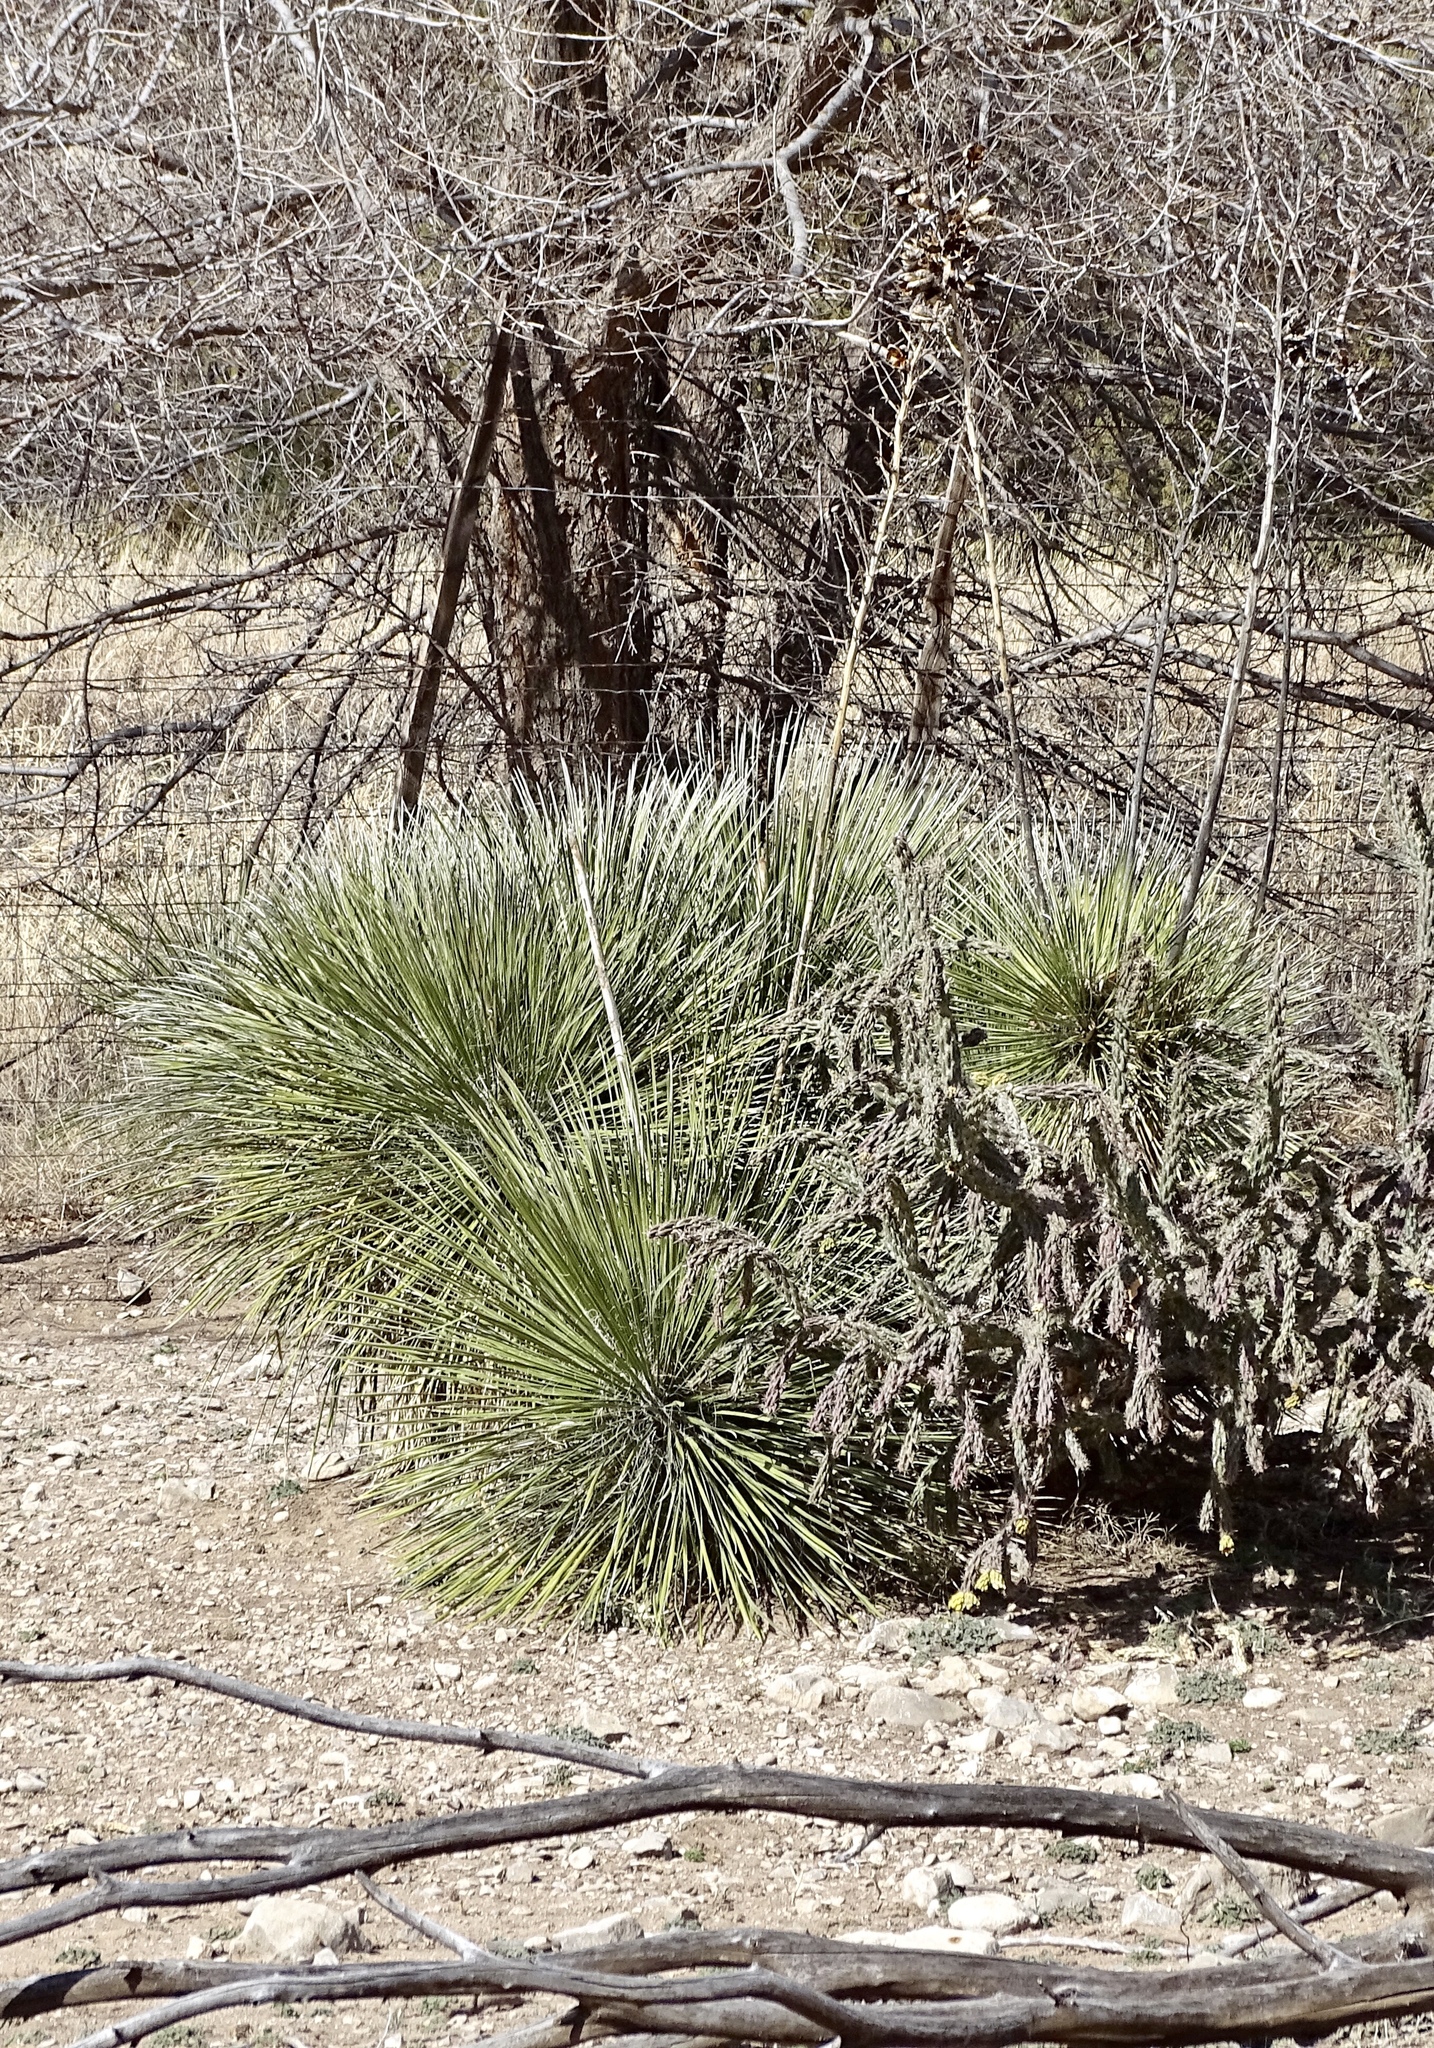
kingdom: Plantae
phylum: Tracheophyta
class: Liliopsida
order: Asparagales
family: Asparagaceae
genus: Yucca
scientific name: Yucca elata
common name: Palmella
